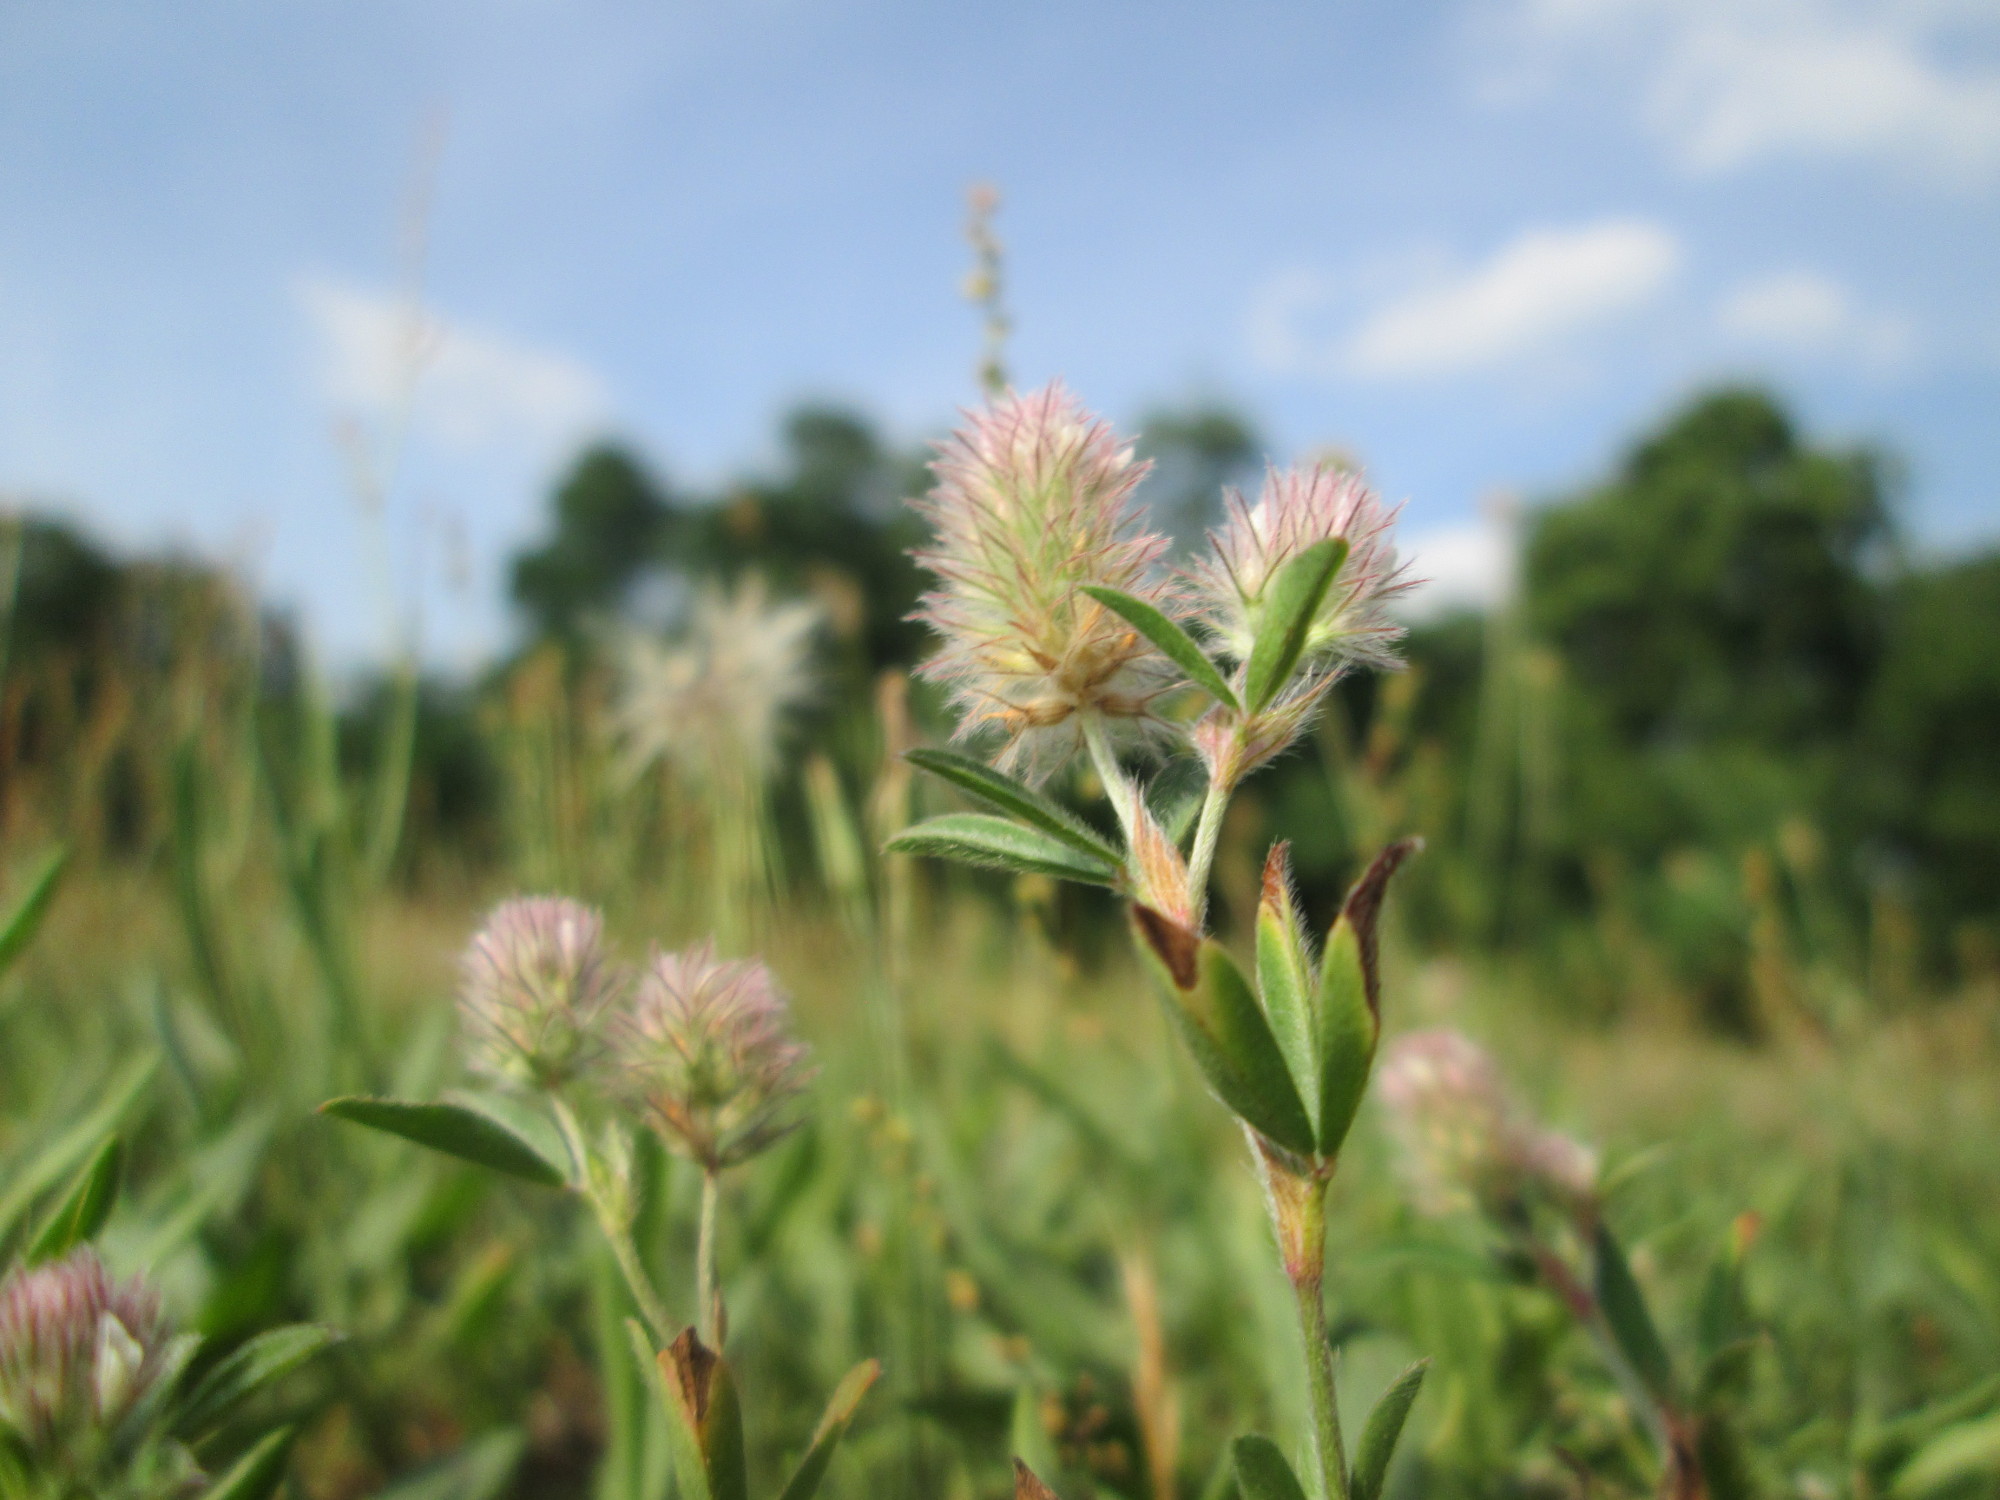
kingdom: Plantae
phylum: Tracheophyta
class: Magnoliopsida
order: Fabales
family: Fabaceae
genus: Trifolium
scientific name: Trifolium arvense
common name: Hare's-foot clover
